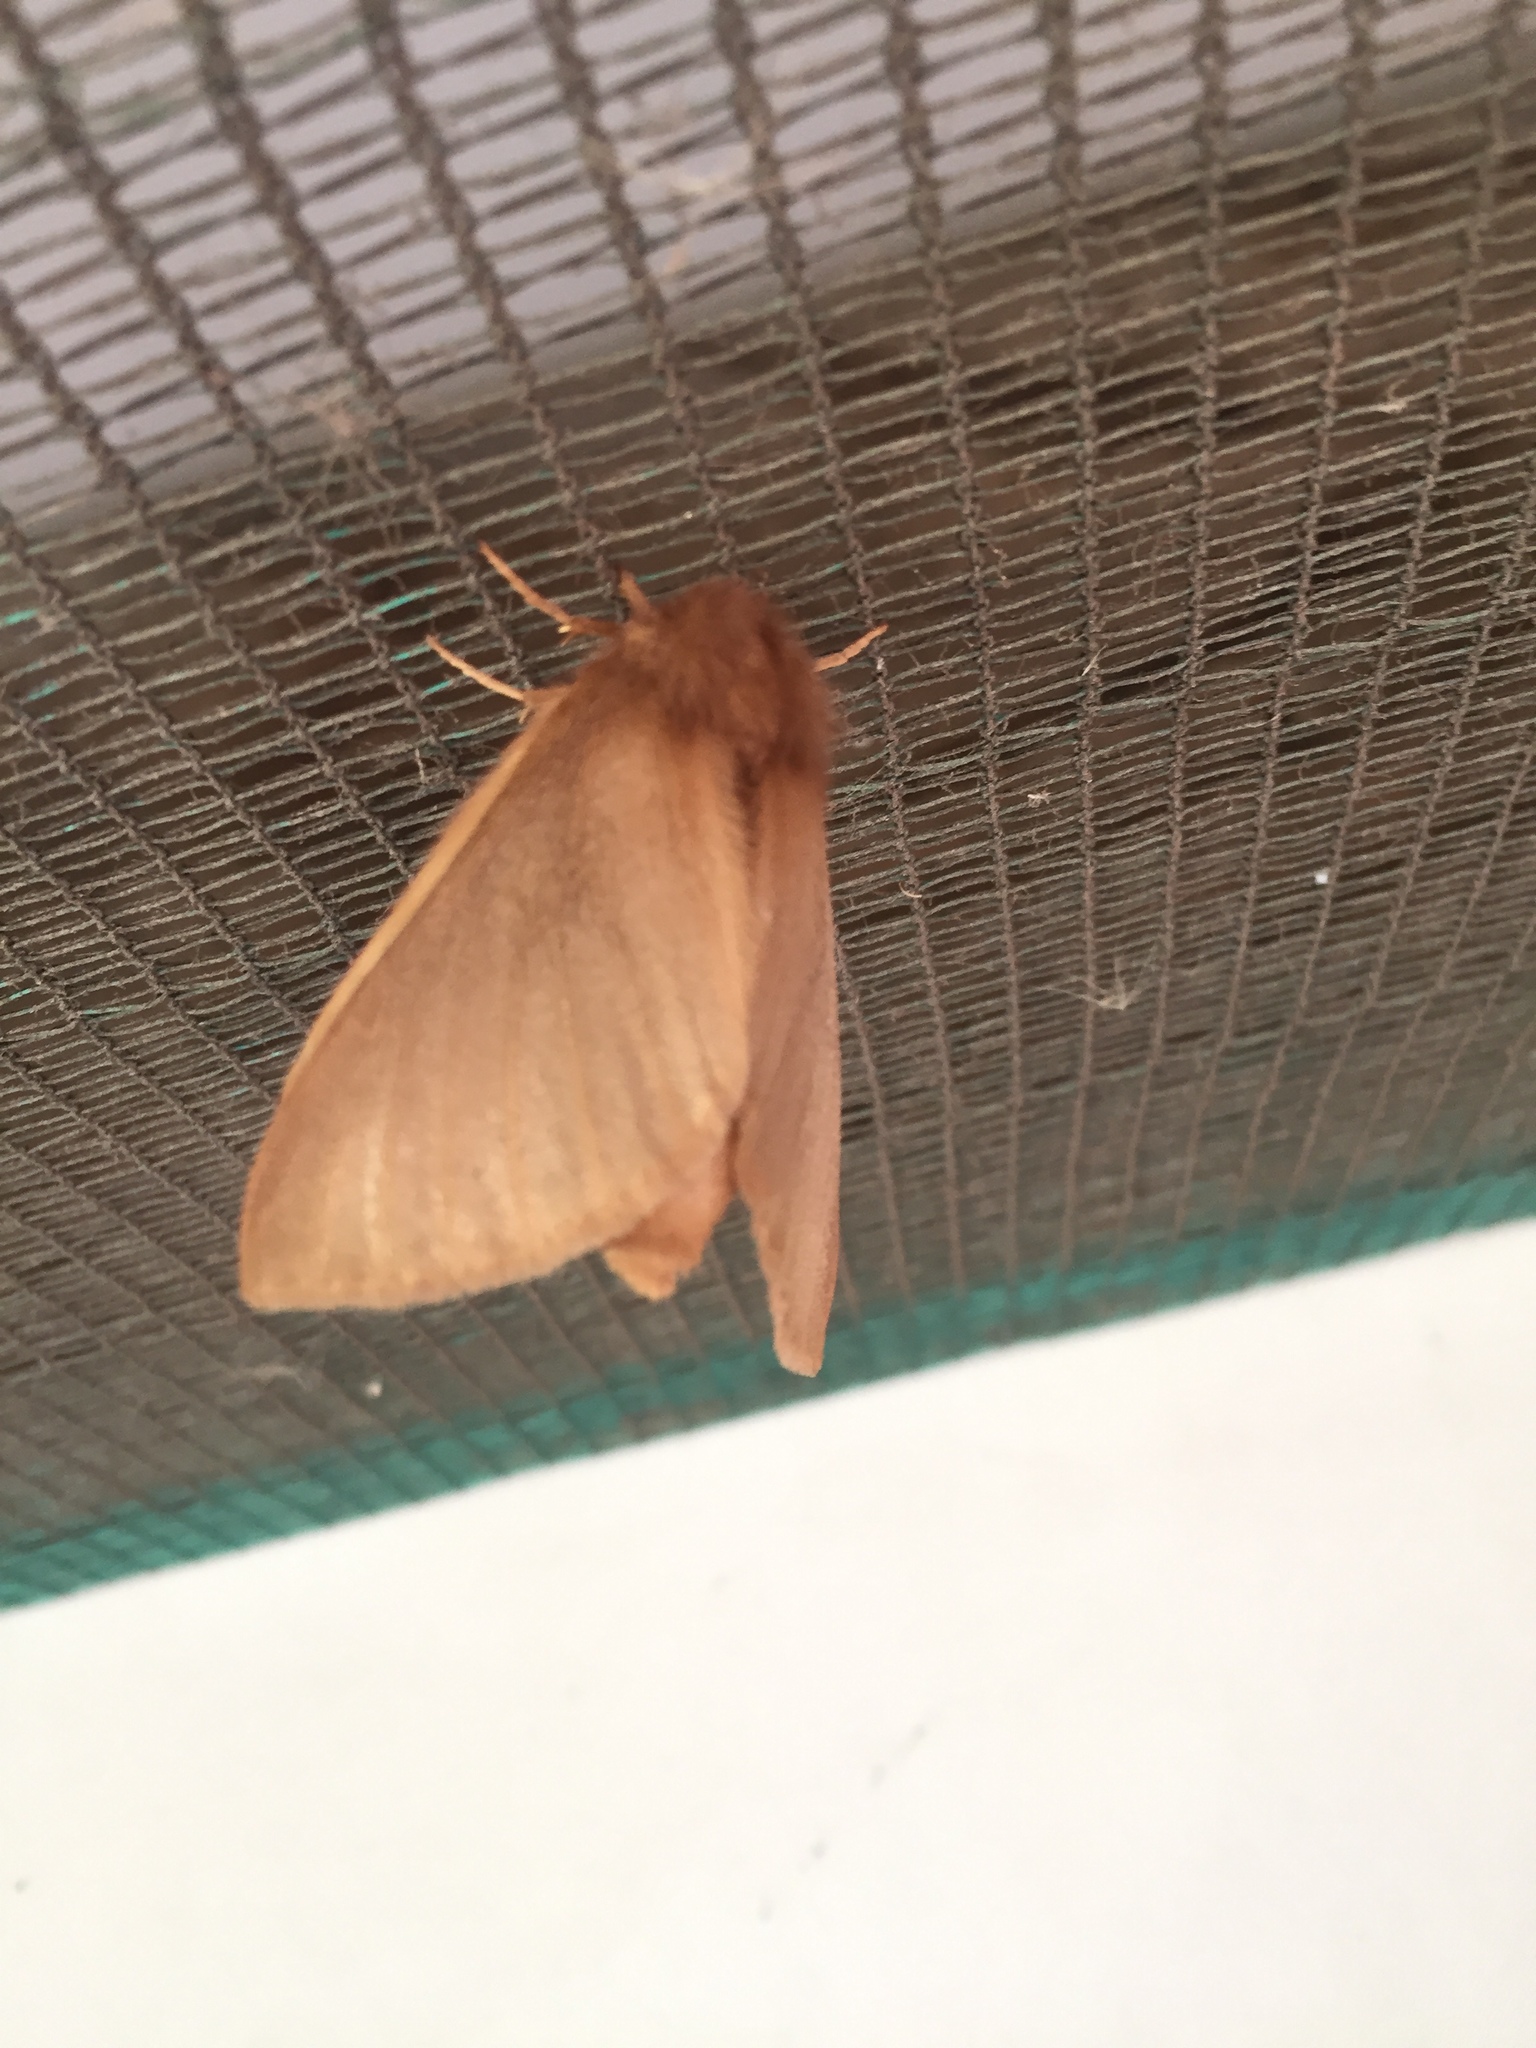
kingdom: Animalia
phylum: Arthropoda
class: Insecta
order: Lepidoptera
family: Eupterotidae
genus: Phyllalia
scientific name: Phyllalia patens
